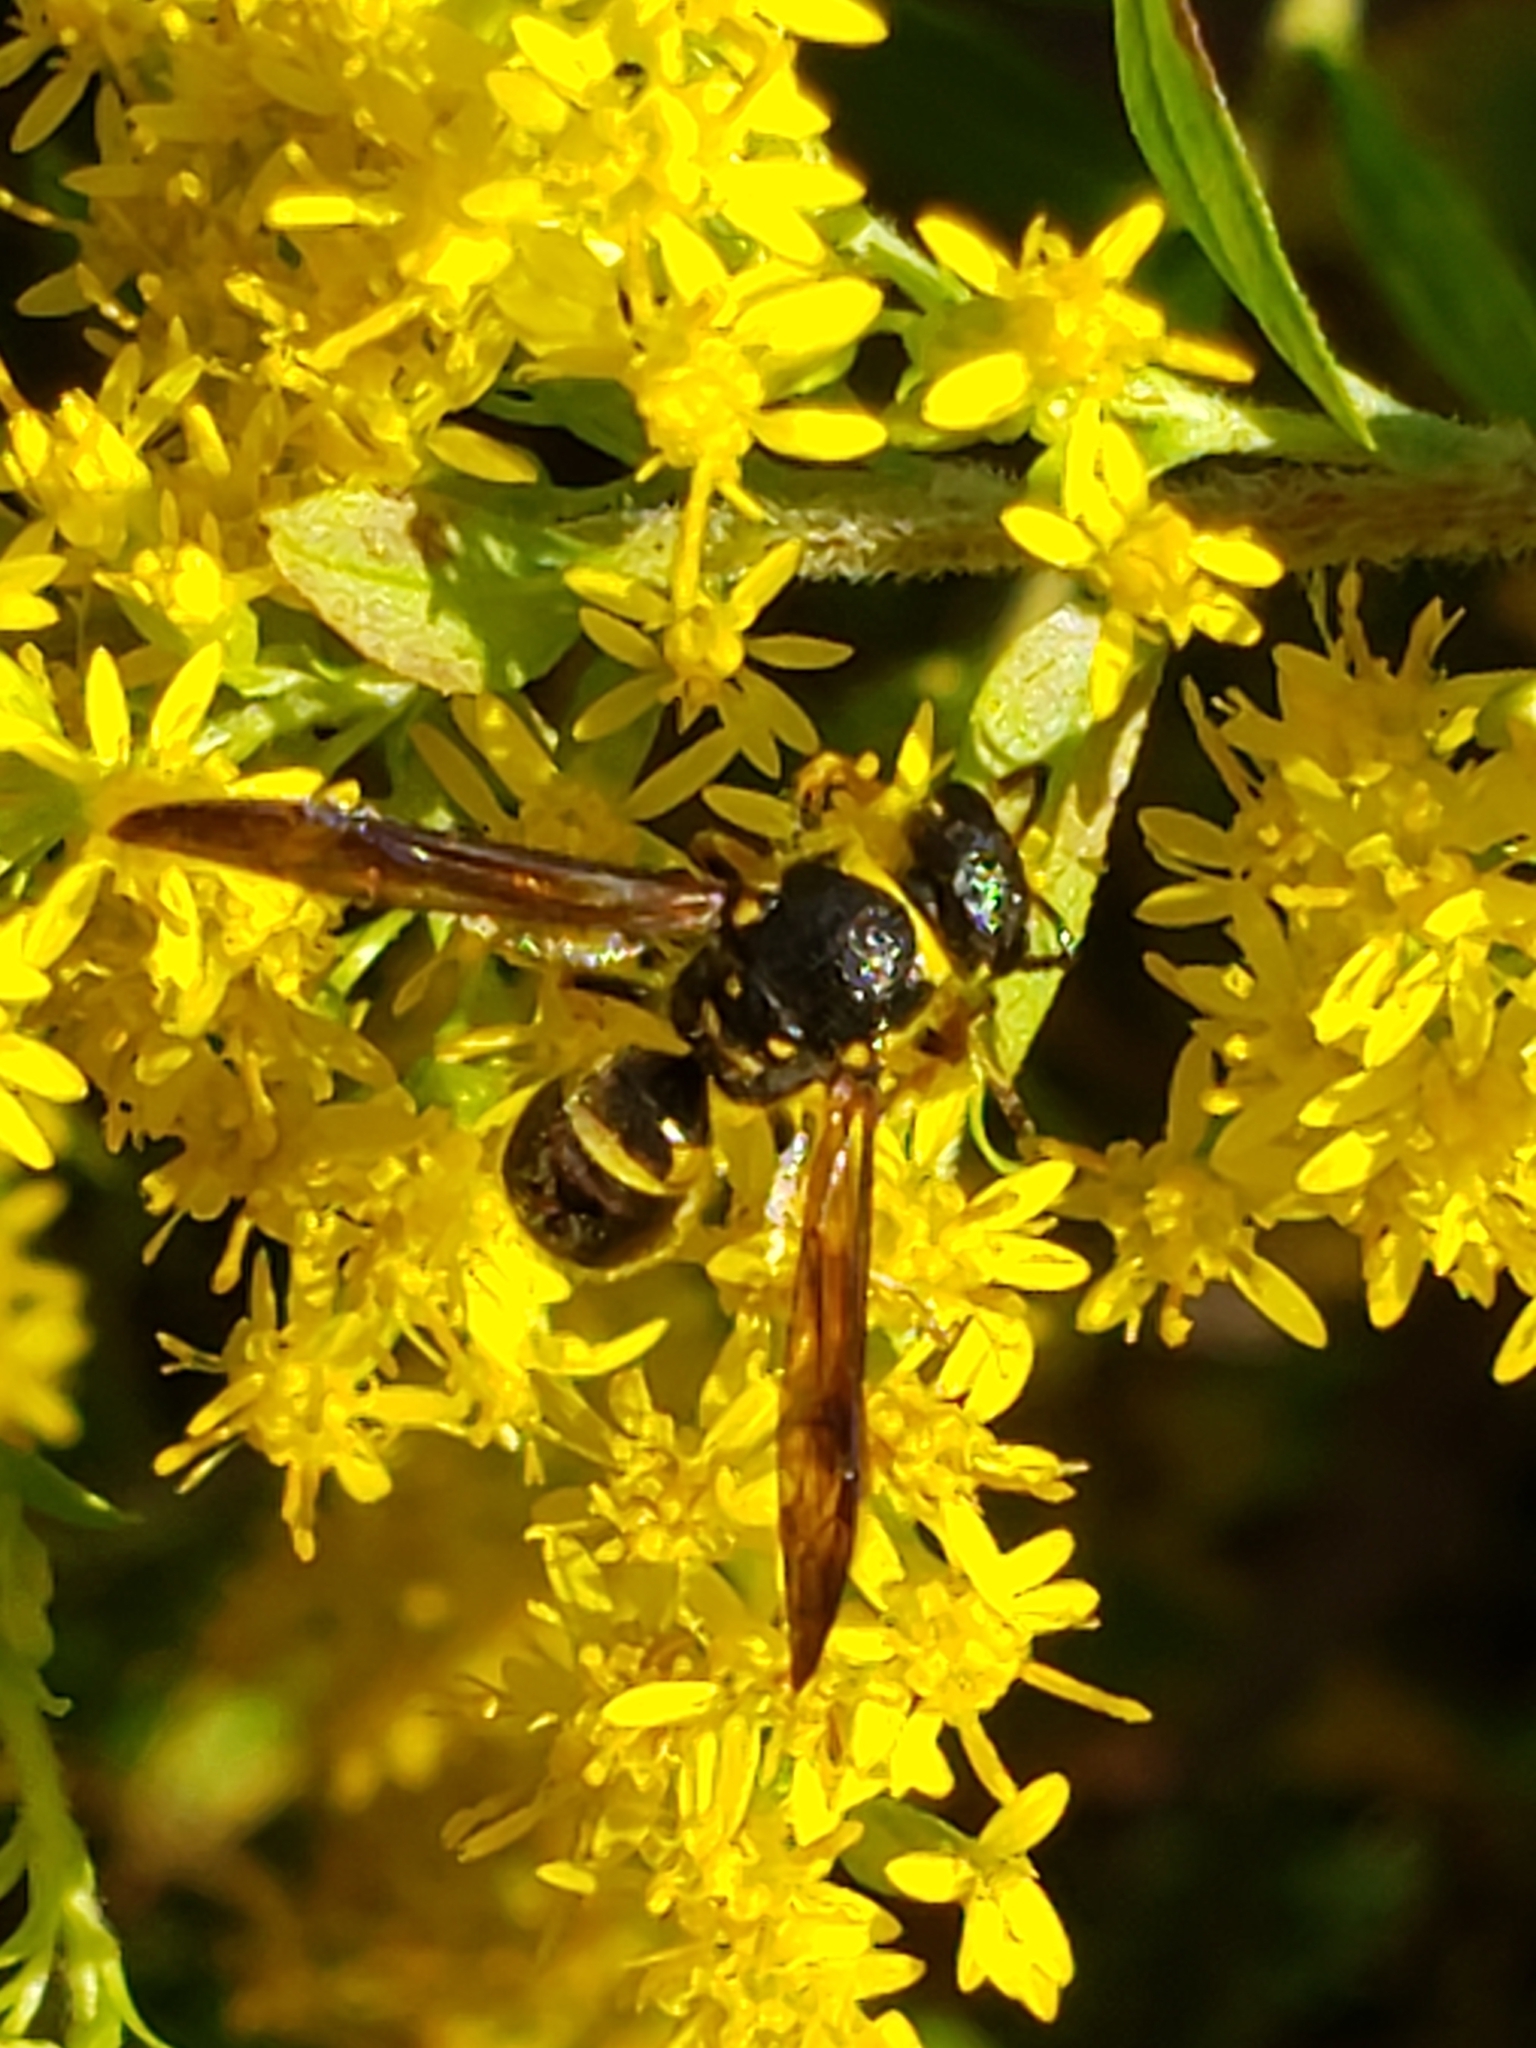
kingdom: Animalia
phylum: Arthropoda
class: Insecta
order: Hymenoptera
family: Vespidae
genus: Ancistrocerus
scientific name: Ancistrocerus campestris
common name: Smiling mason wasp
